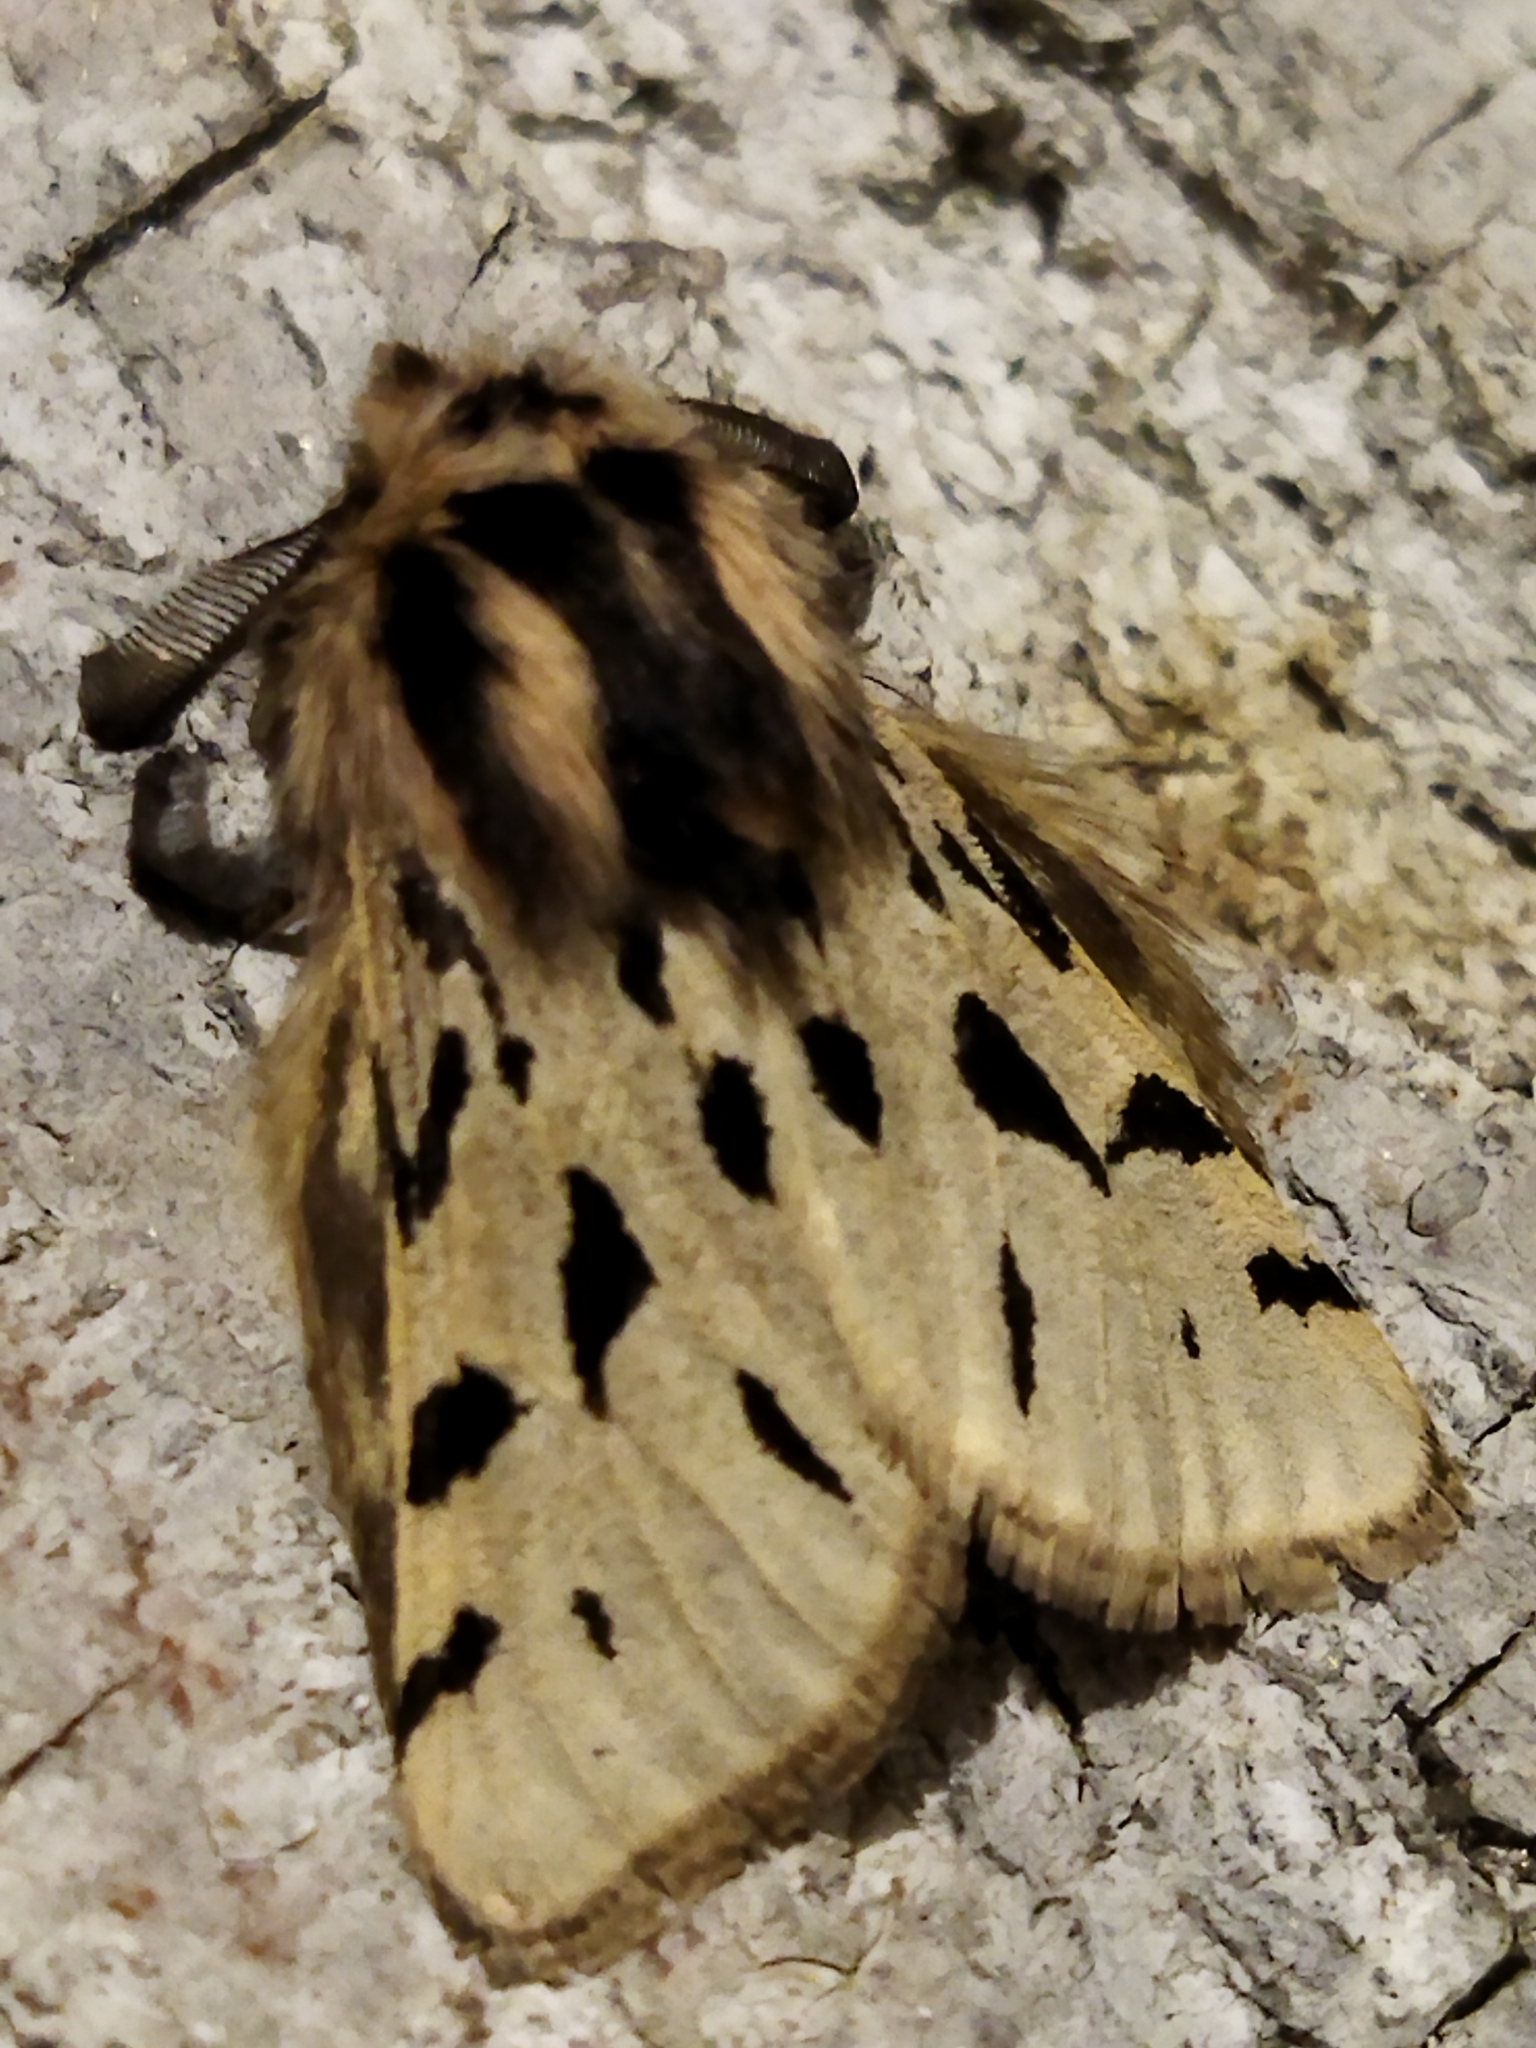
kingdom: Animalia
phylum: Arthropoda
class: Insecta
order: Lepidoptera
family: Erebidae
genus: Ocnogyna
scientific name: Ocnogyna parasita
